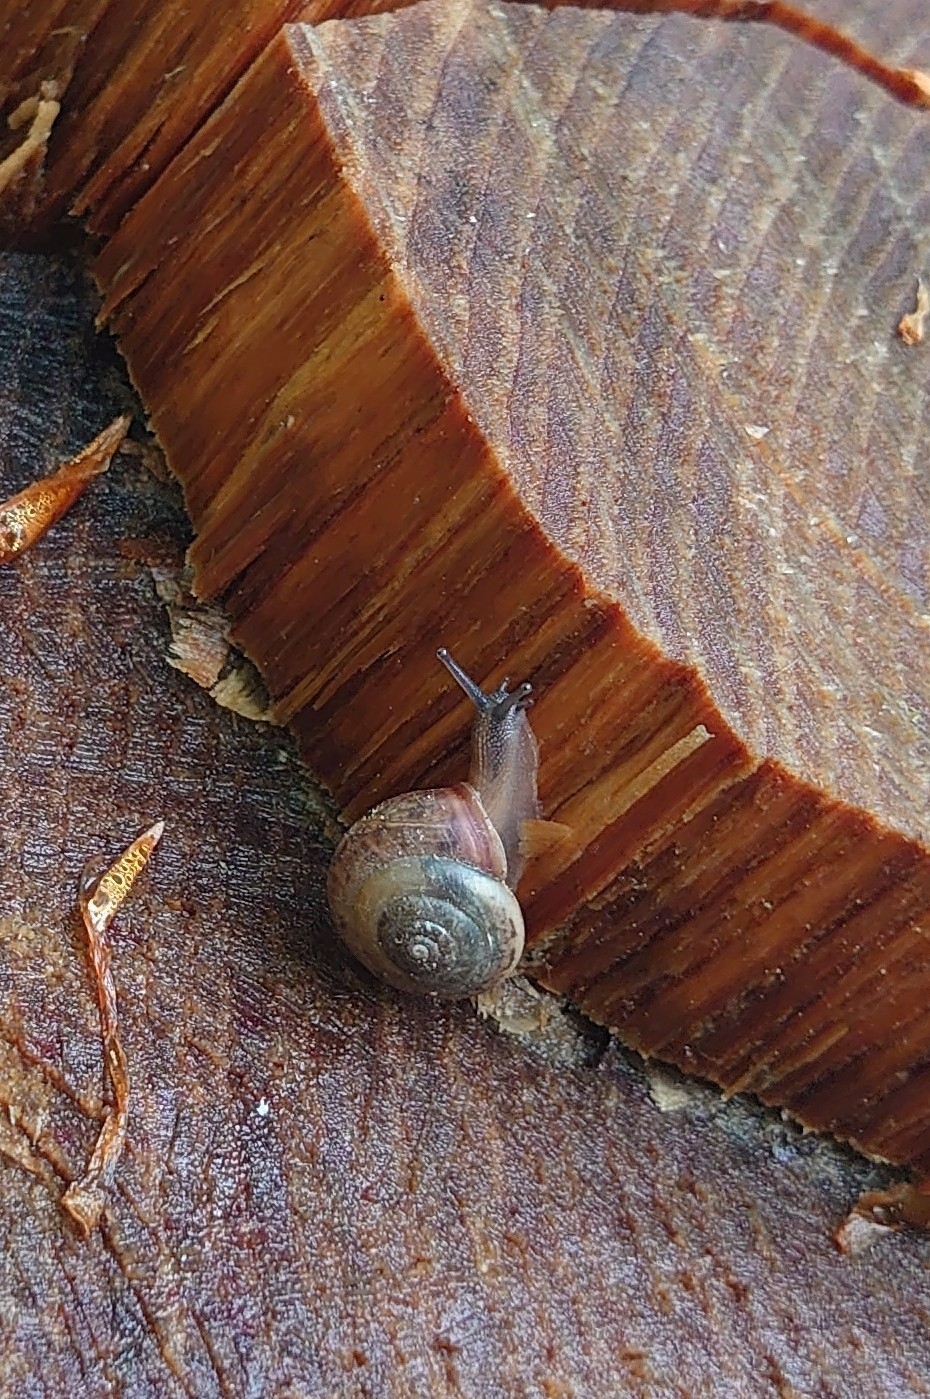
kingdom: Animalia
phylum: Mollusca
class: Gastropoda
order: Stylommatophora
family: Hygromiidae
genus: Monachoides
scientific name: Monachoides incarnatus
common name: Incarnate snail
